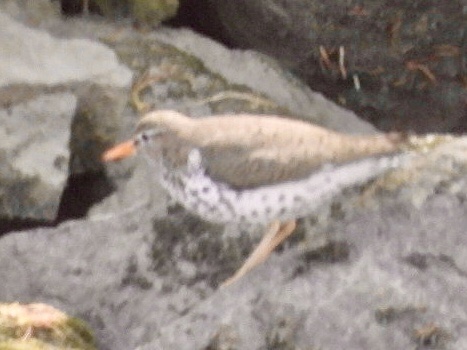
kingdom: Animalia
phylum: Chordata
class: Aves
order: Charadriiformes
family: Scolopacidae
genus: Actitis
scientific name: Actitis macularius
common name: Spotted sandpiper
